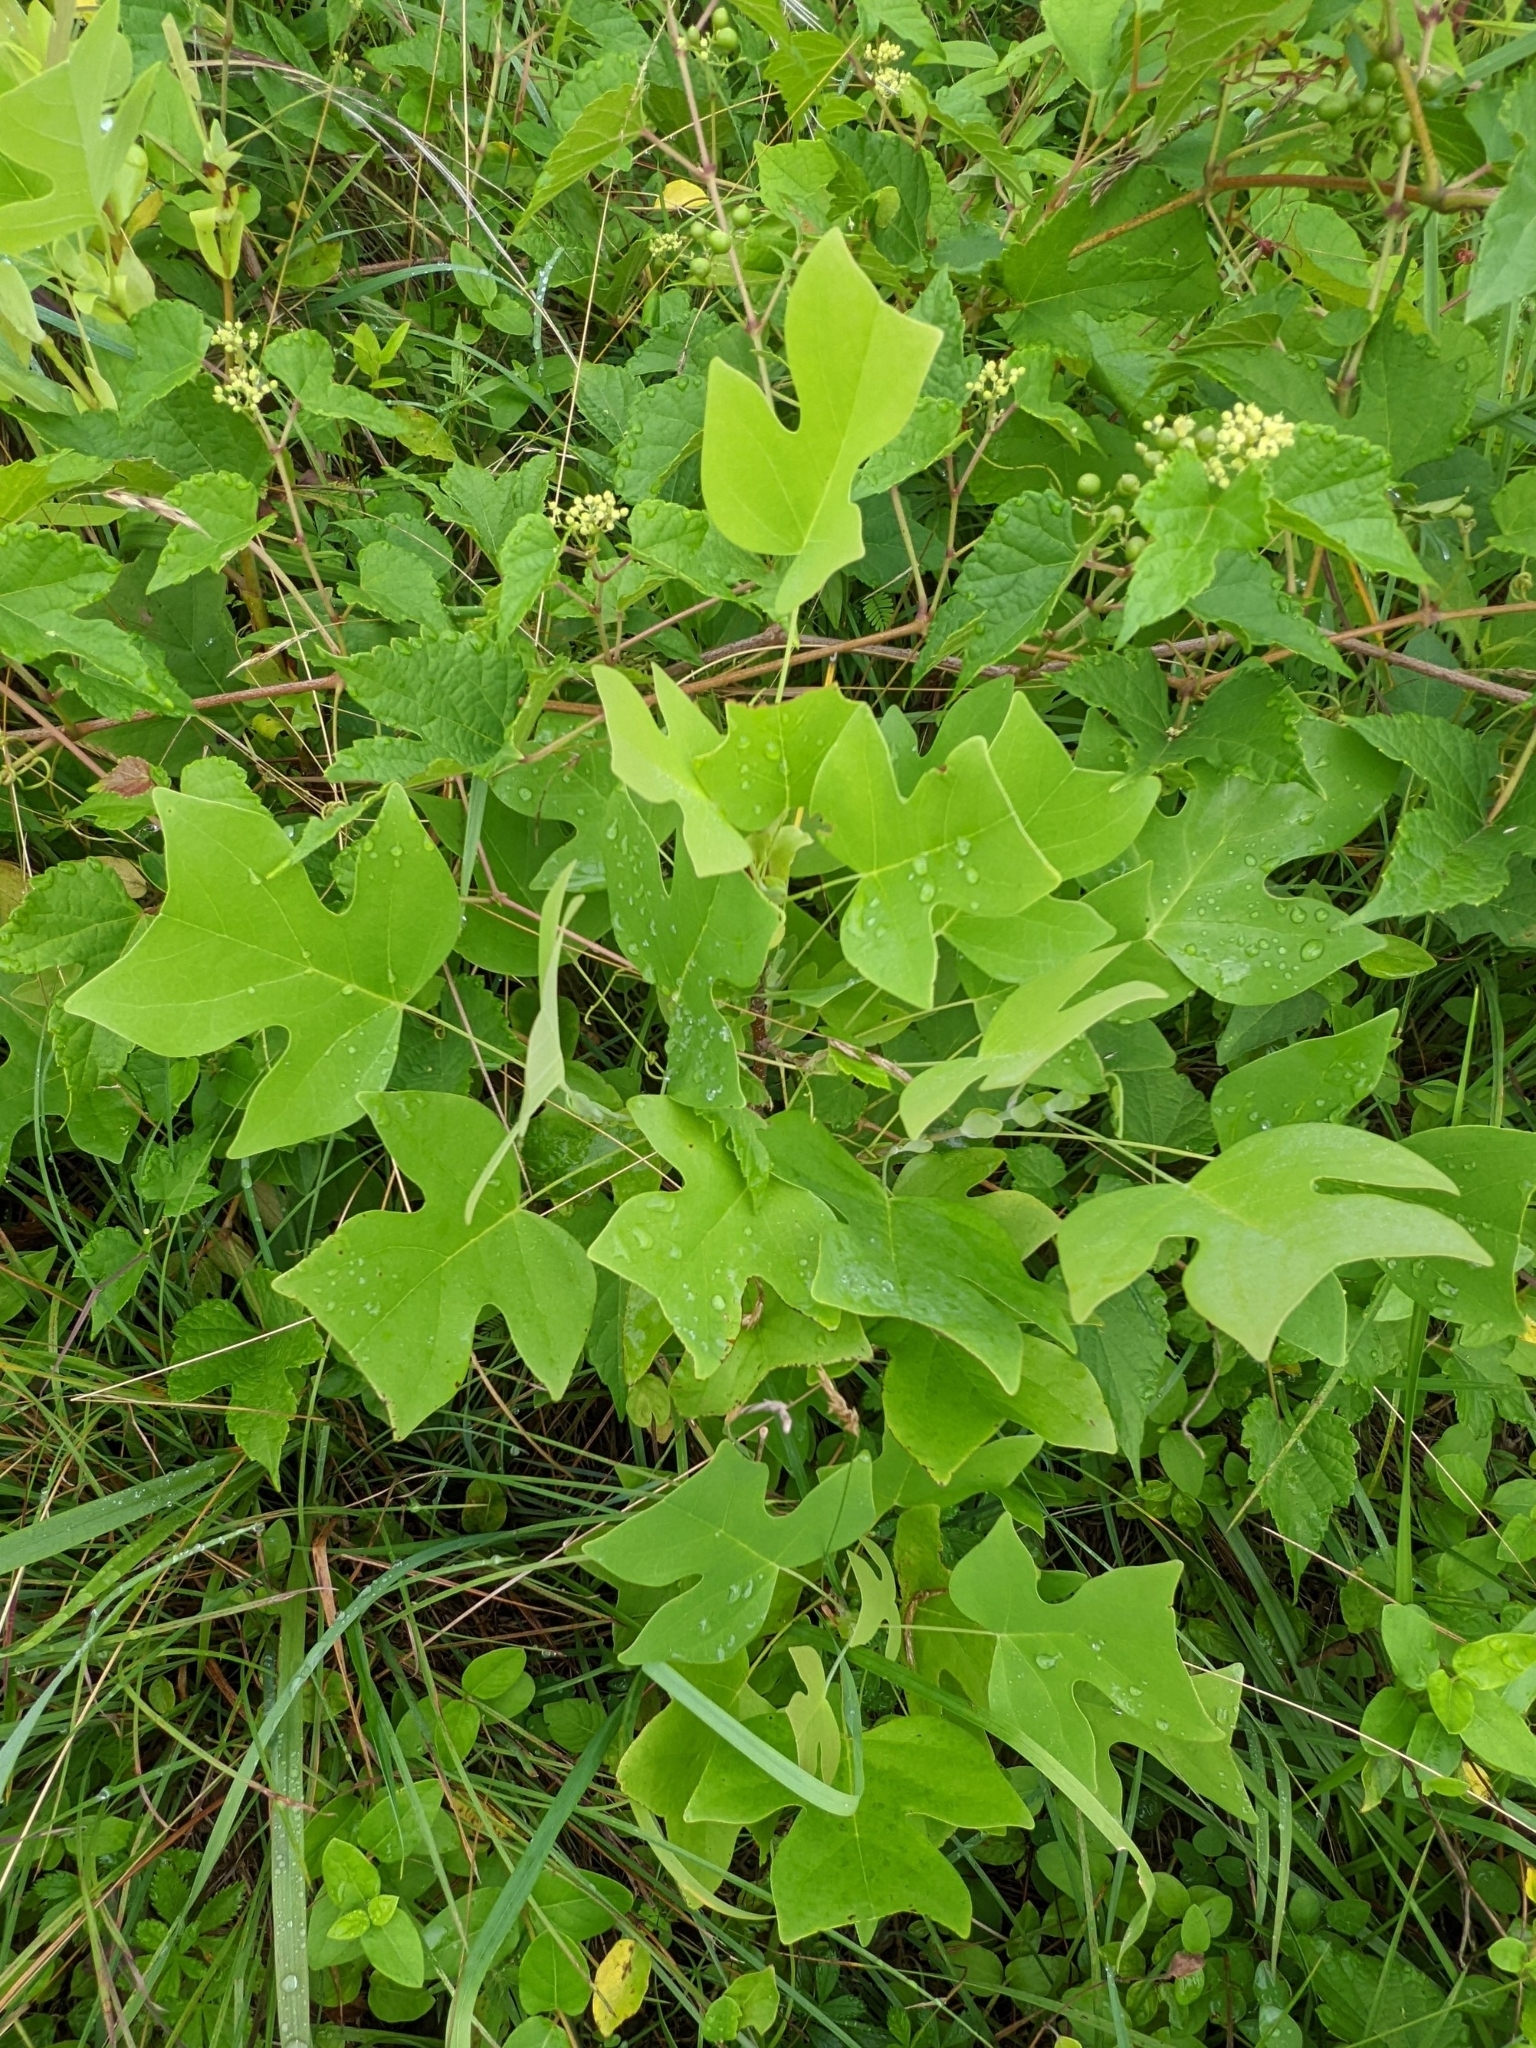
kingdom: Plantae
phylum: Tracheophyta
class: Magnoliopsida
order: Magnoliales
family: Magnoliaceae
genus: Liriodendron
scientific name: Liriodendron tulipifera
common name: Tulip tree
